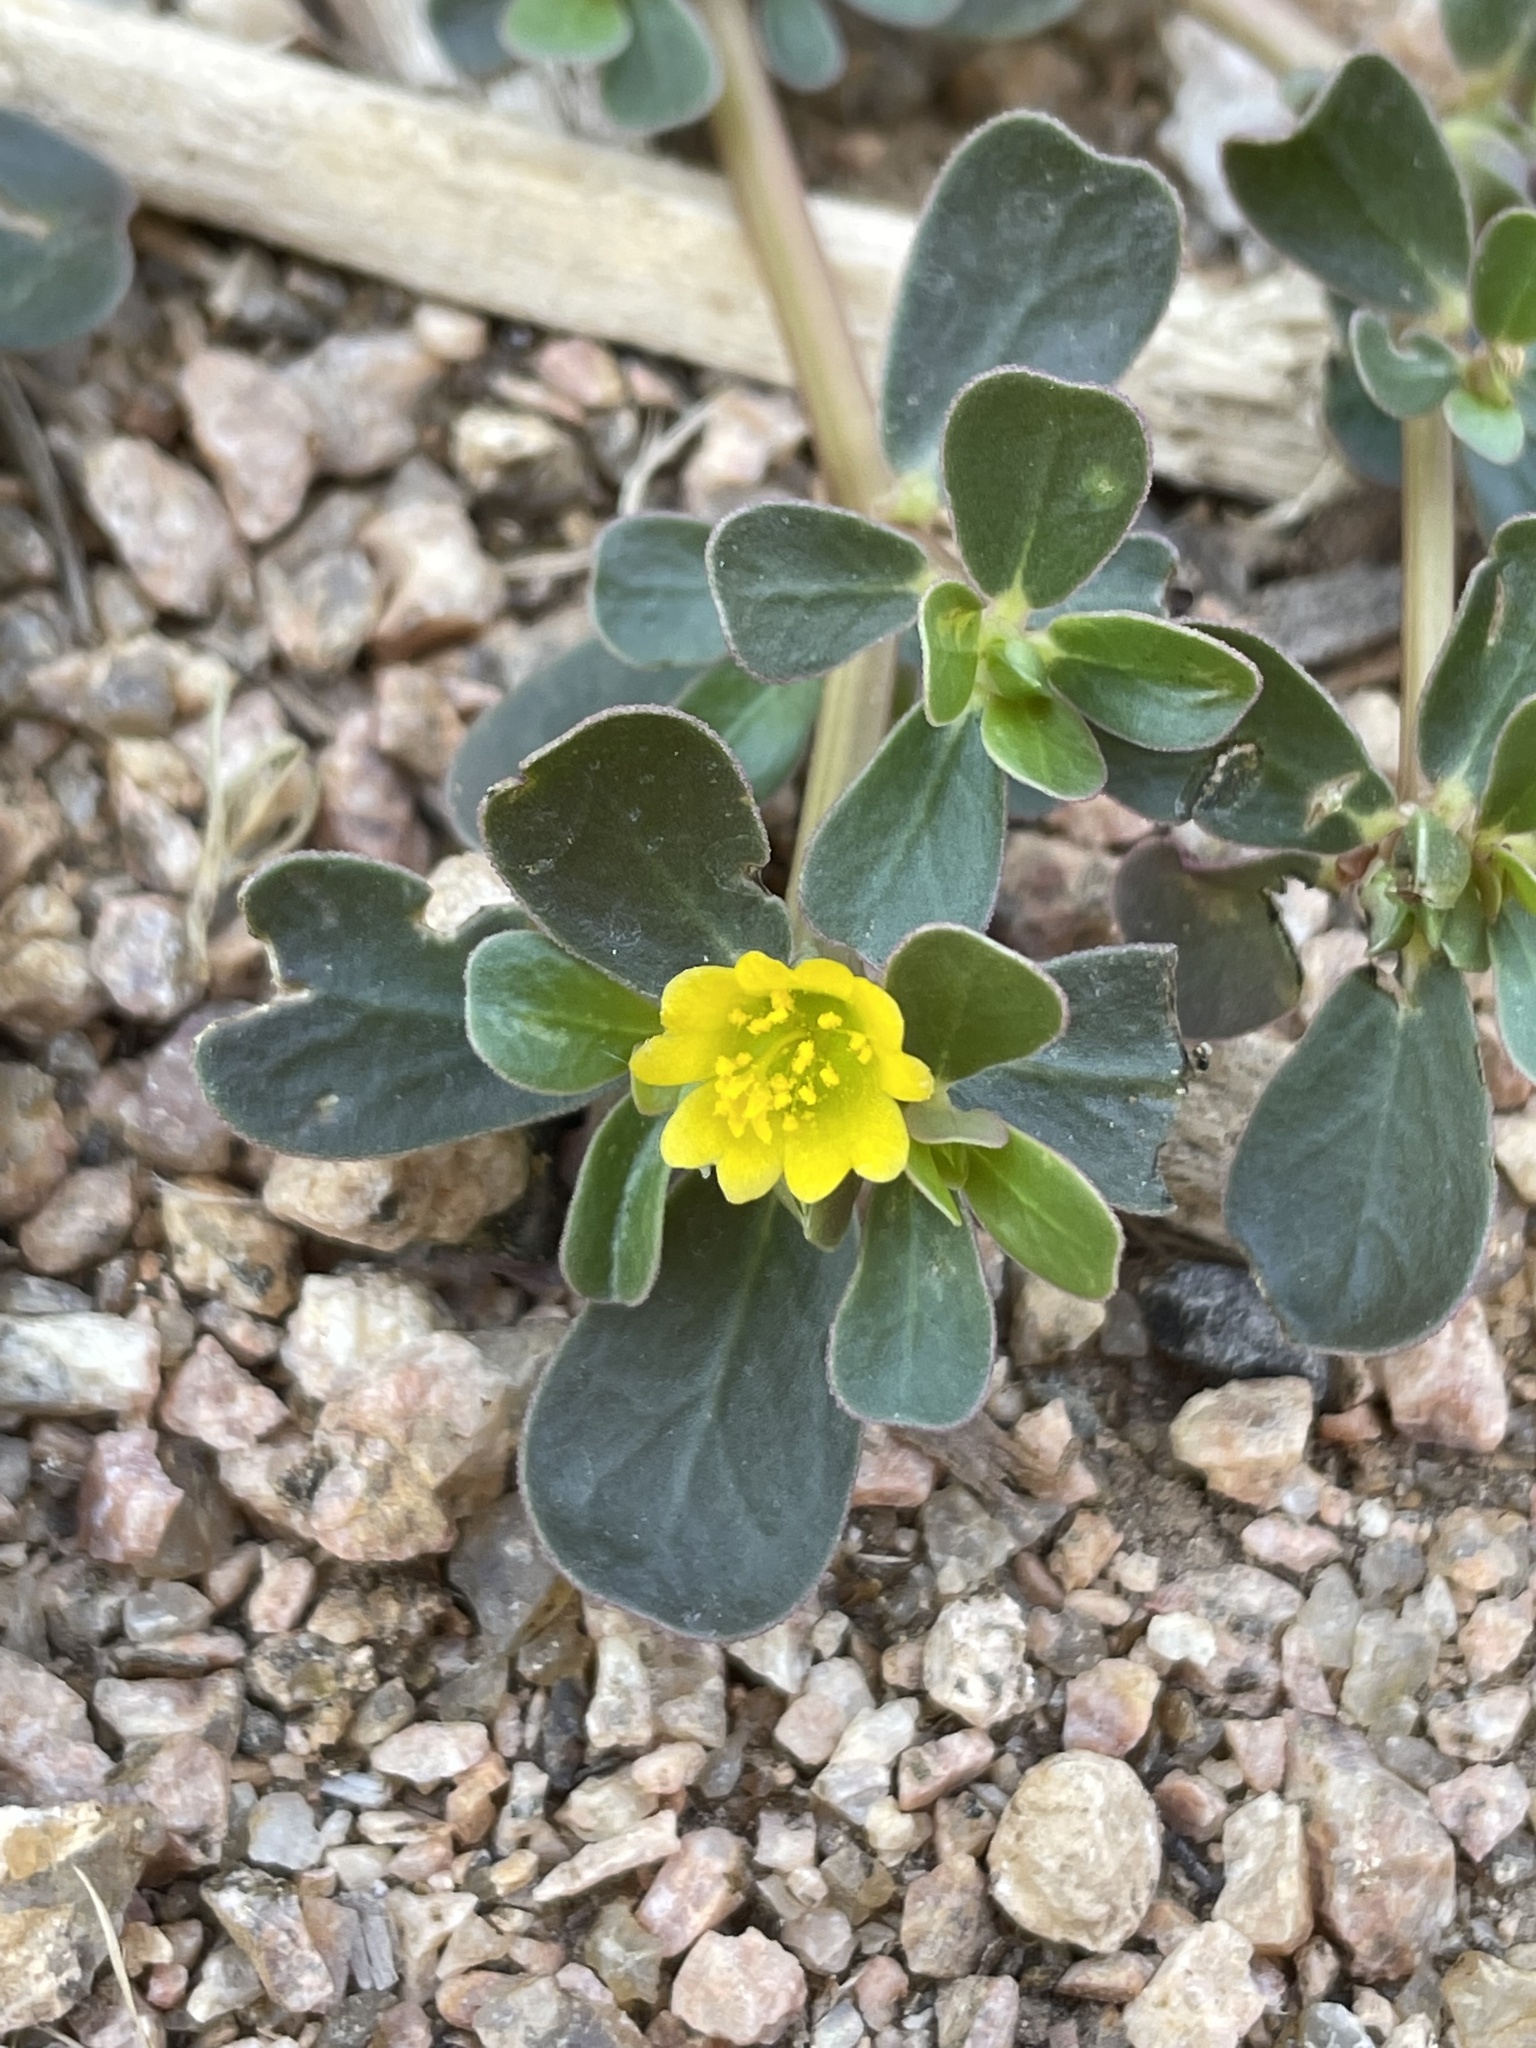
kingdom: Plantae
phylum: Tracheophyta
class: Magnoliopsida
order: Caryophyllales
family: Portulacaceae
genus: Portulaca
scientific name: Portulaca oleracea
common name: Common purslane
